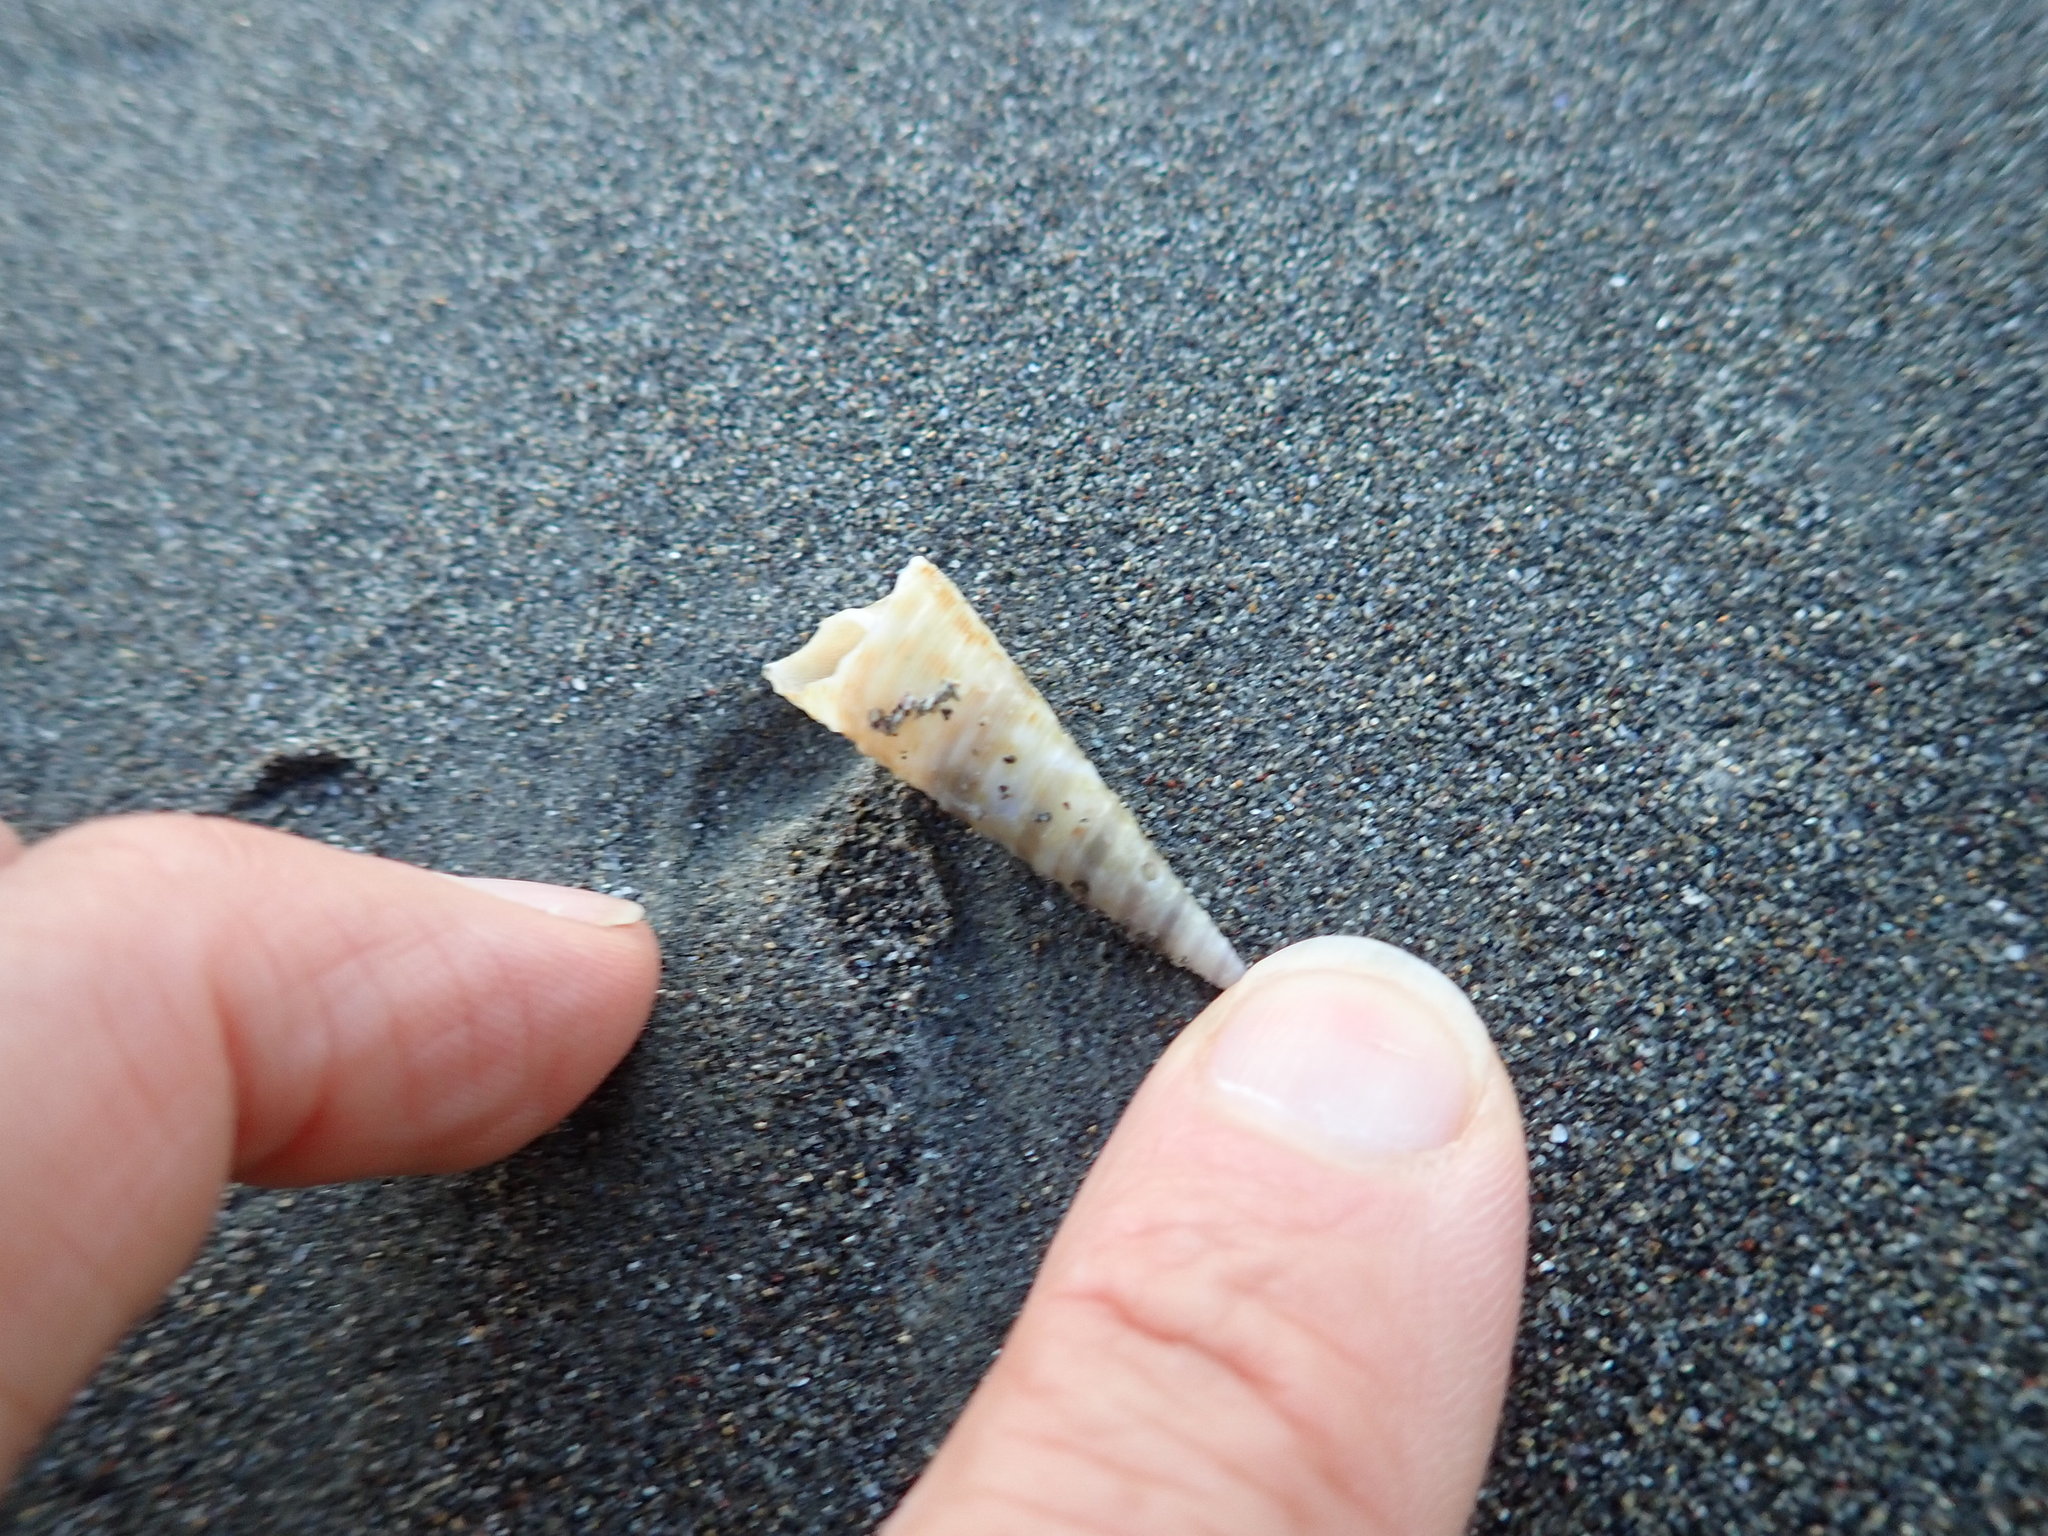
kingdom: Animalia
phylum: Mollusca
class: Gastropoda
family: Turritellidae
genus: Maoricolpus
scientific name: Maoricolpus roseus
